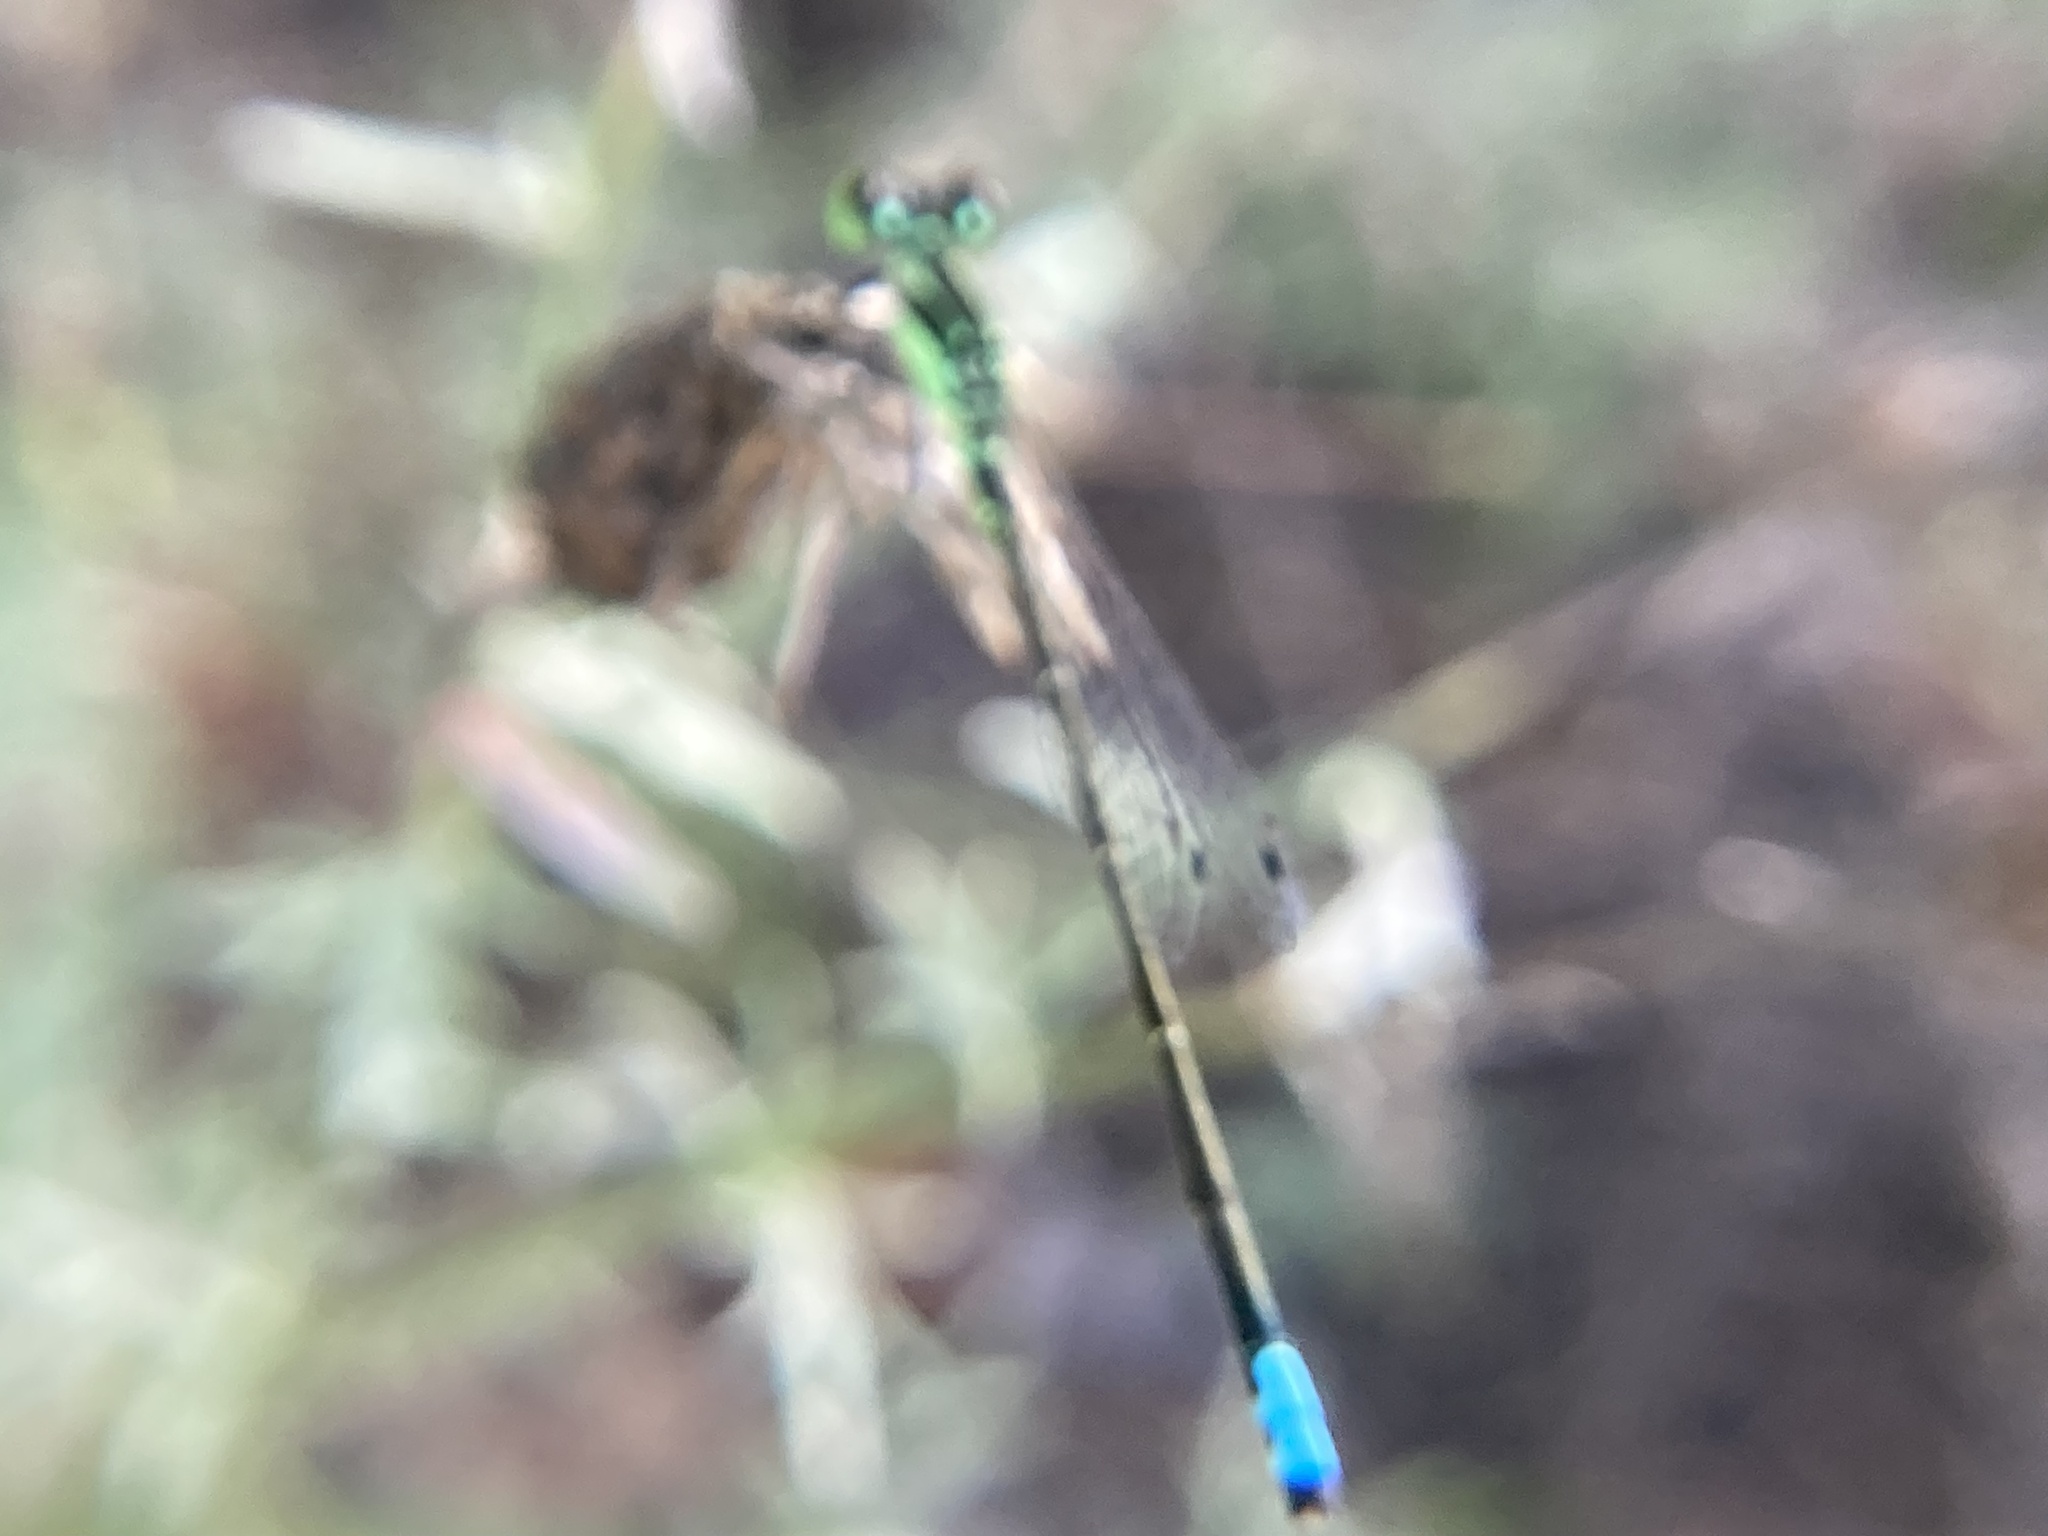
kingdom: Animalia
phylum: Arthropoda
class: Insecta
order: Odonata
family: Coenagrionidae
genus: Ischnura
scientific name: Ischnura verticalis
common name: Eastern forktail
